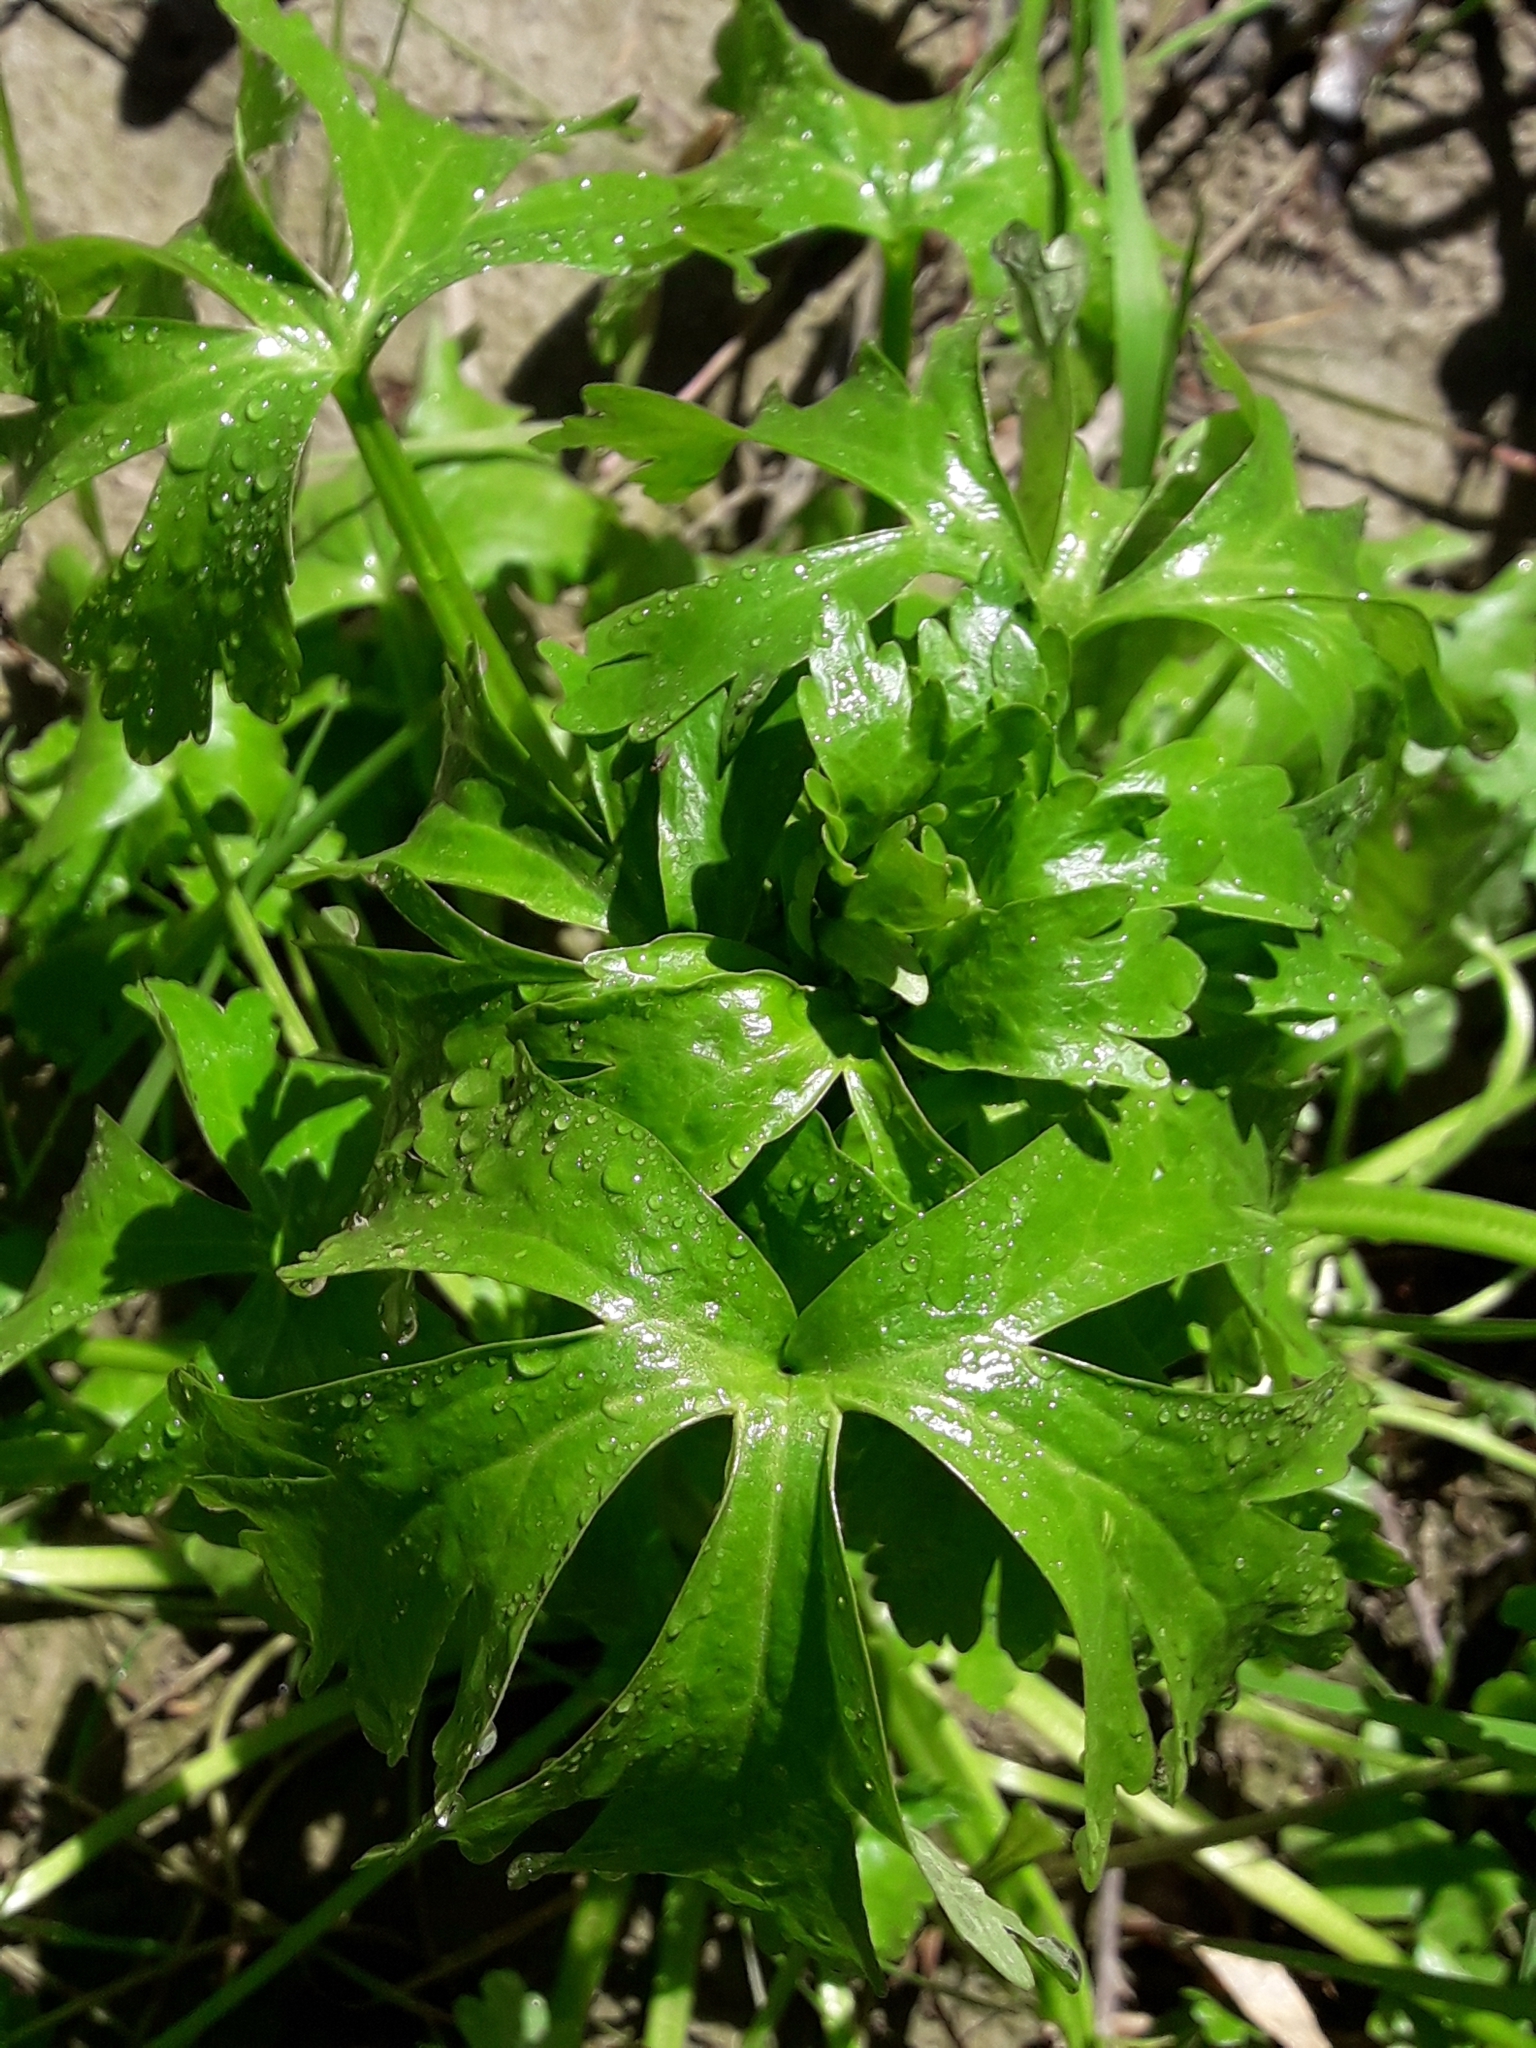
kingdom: Plantae
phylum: Tracheophyta
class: Magnoliopsida
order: Ranunculales
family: Ranunculaceae
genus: Ranunculus
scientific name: Ranunculus sceleratus
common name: Celery-leaved buttercup
